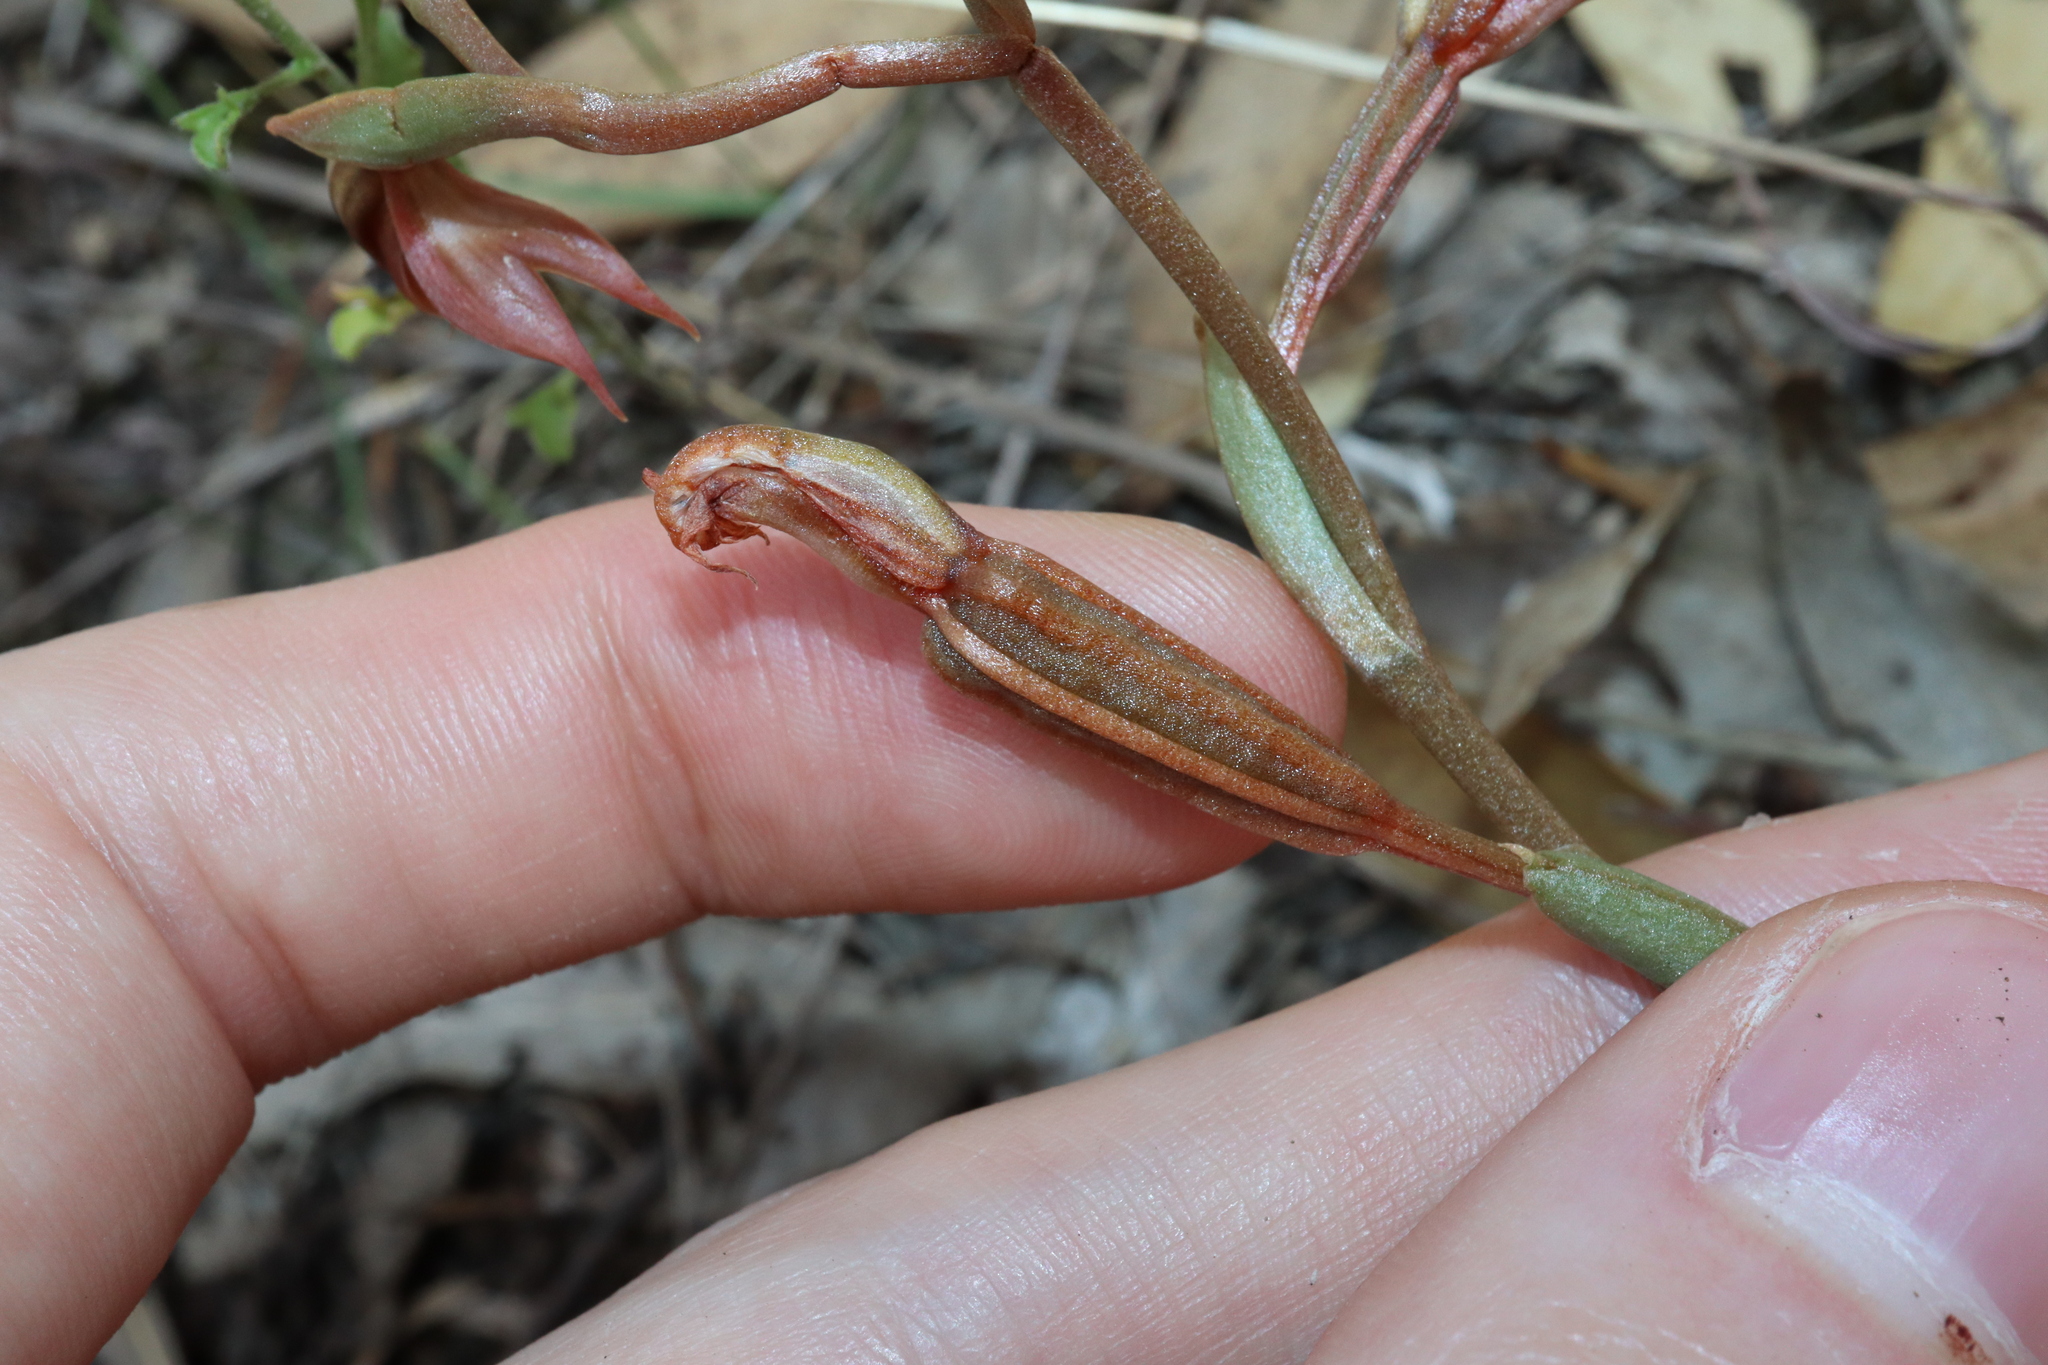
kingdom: Plantae
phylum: Tracheophyta
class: Liliopsida
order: Asparagales
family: Orchidaceae
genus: Pterostylis
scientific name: Pterostylis rufa
